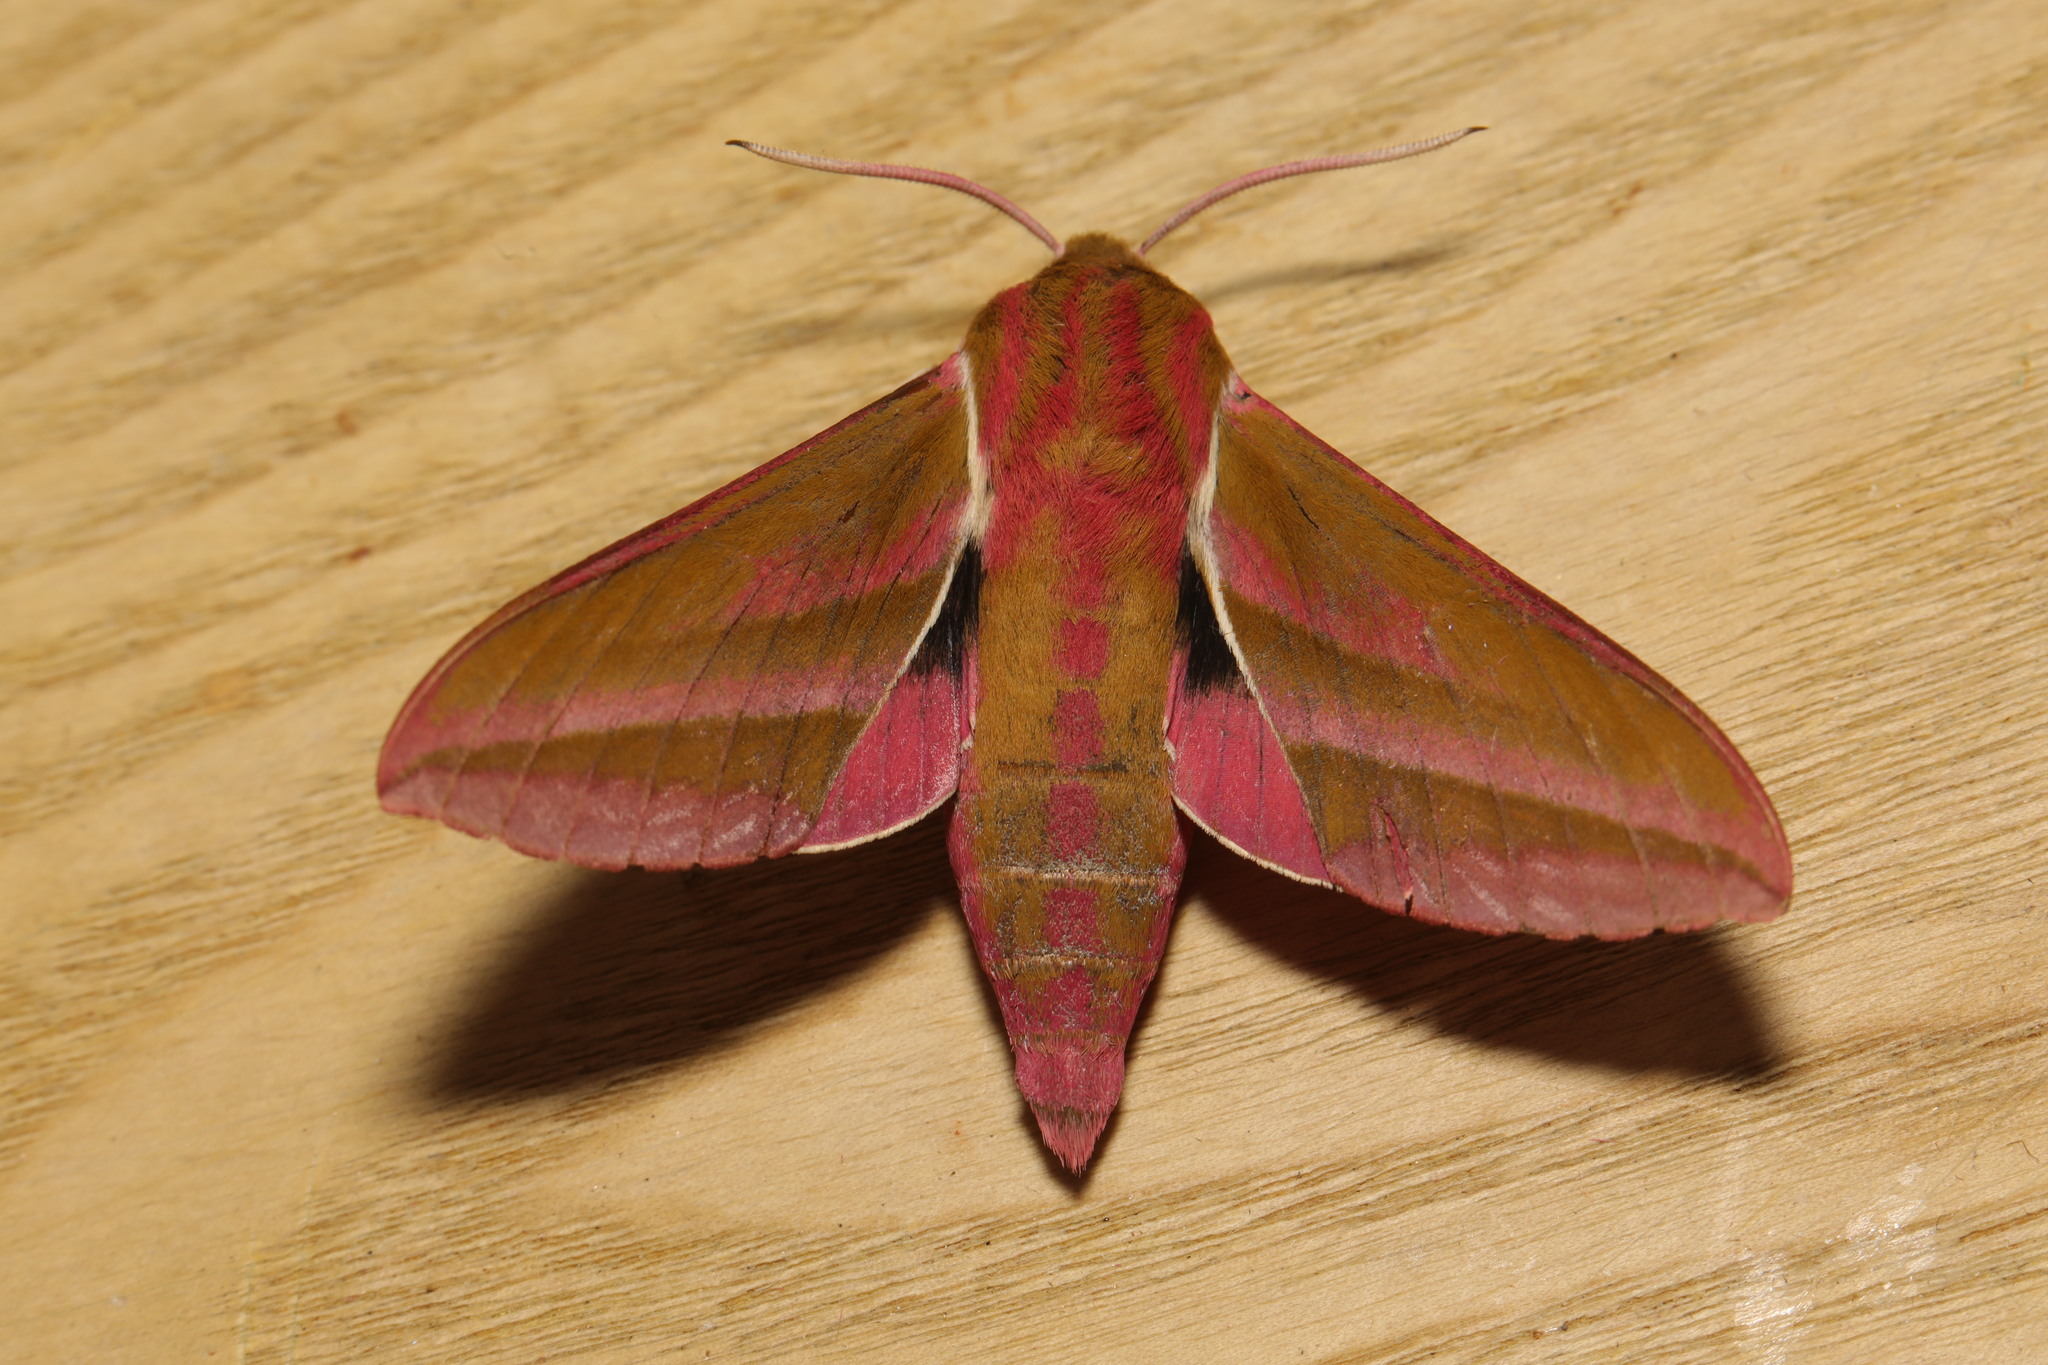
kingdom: Animalia
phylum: Arthropoda
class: Insecta
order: Lepidoptera
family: Sphingidae
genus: Deilephila
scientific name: Deilephila elpenor
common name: Elephant hawk-moth
